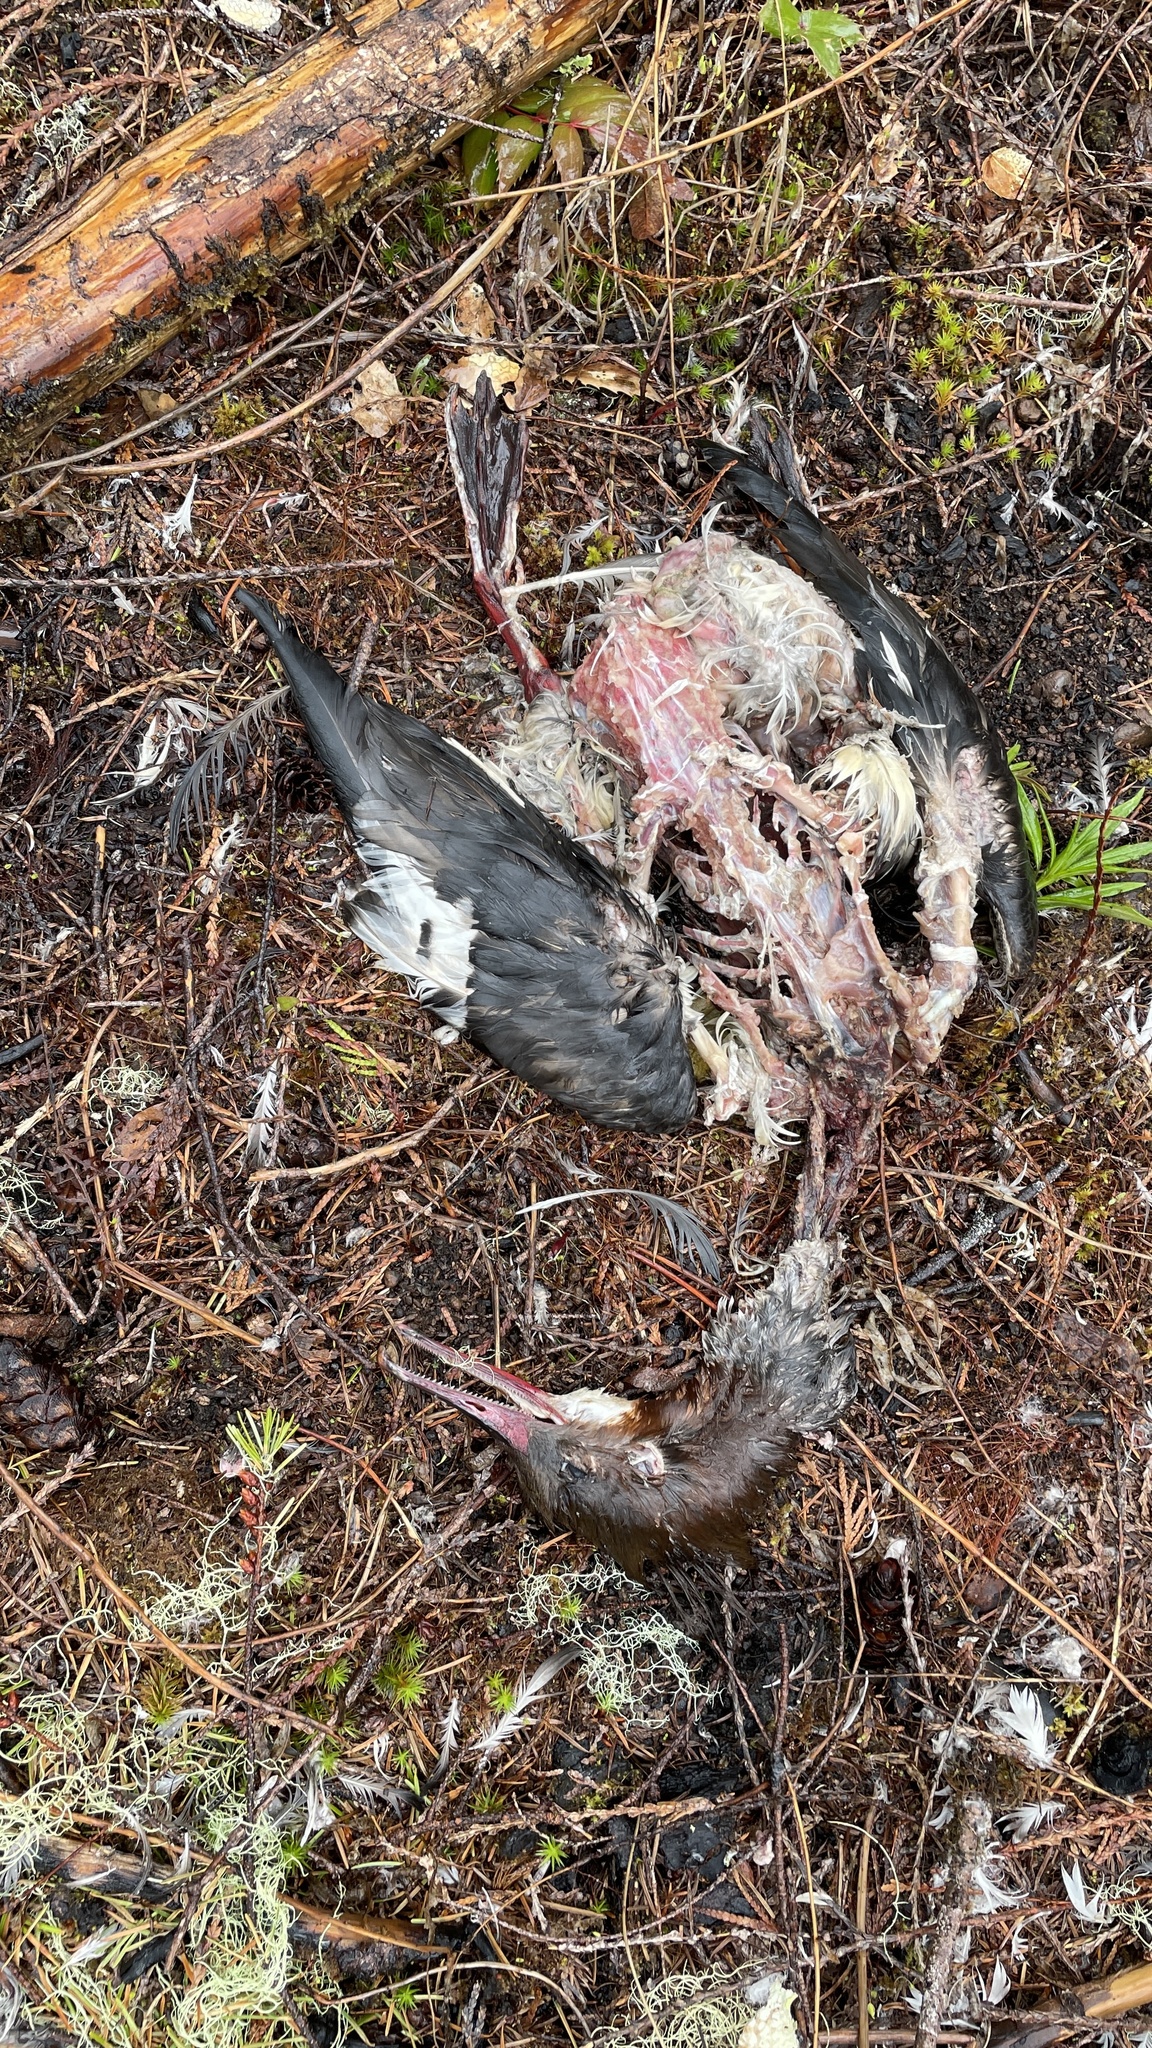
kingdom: Animalia
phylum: Chordata
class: Aves
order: Anseriformes
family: Anatidae
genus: Mergus
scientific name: Mergus merganser
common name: Common merganser
